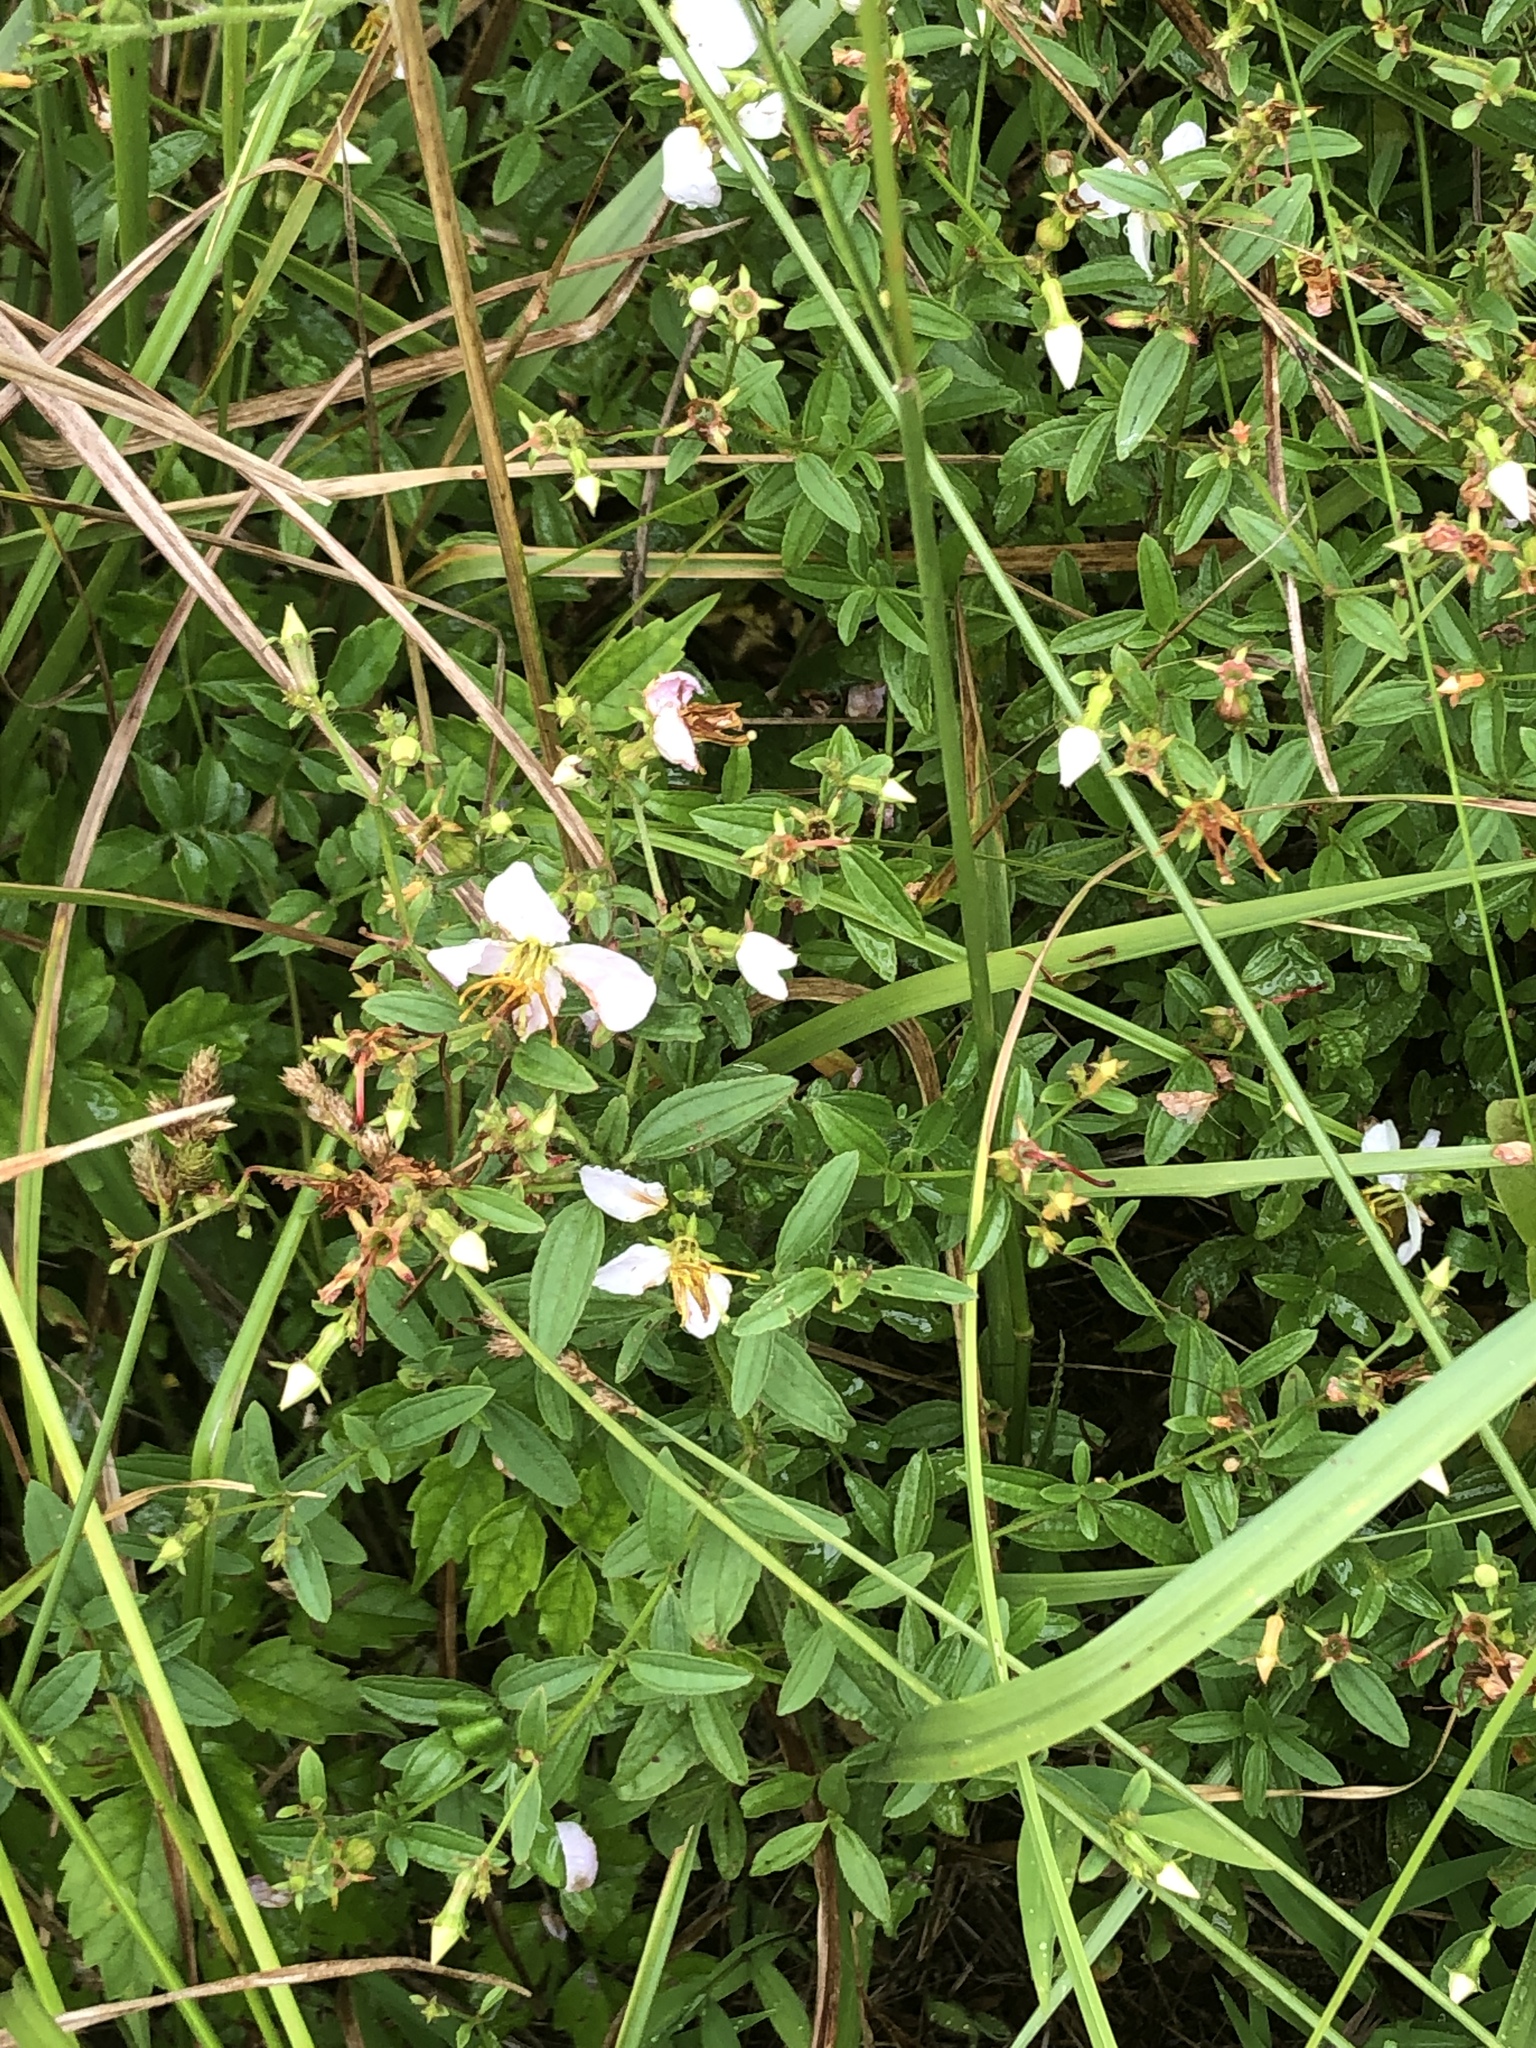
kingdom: Plantae
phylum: Tracheophyta
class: Magnoliopsida
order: Myrtales
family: Melastomataceae
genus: Rhexia
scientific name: Rhexia mariana
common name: Dull meadow-pitcher
